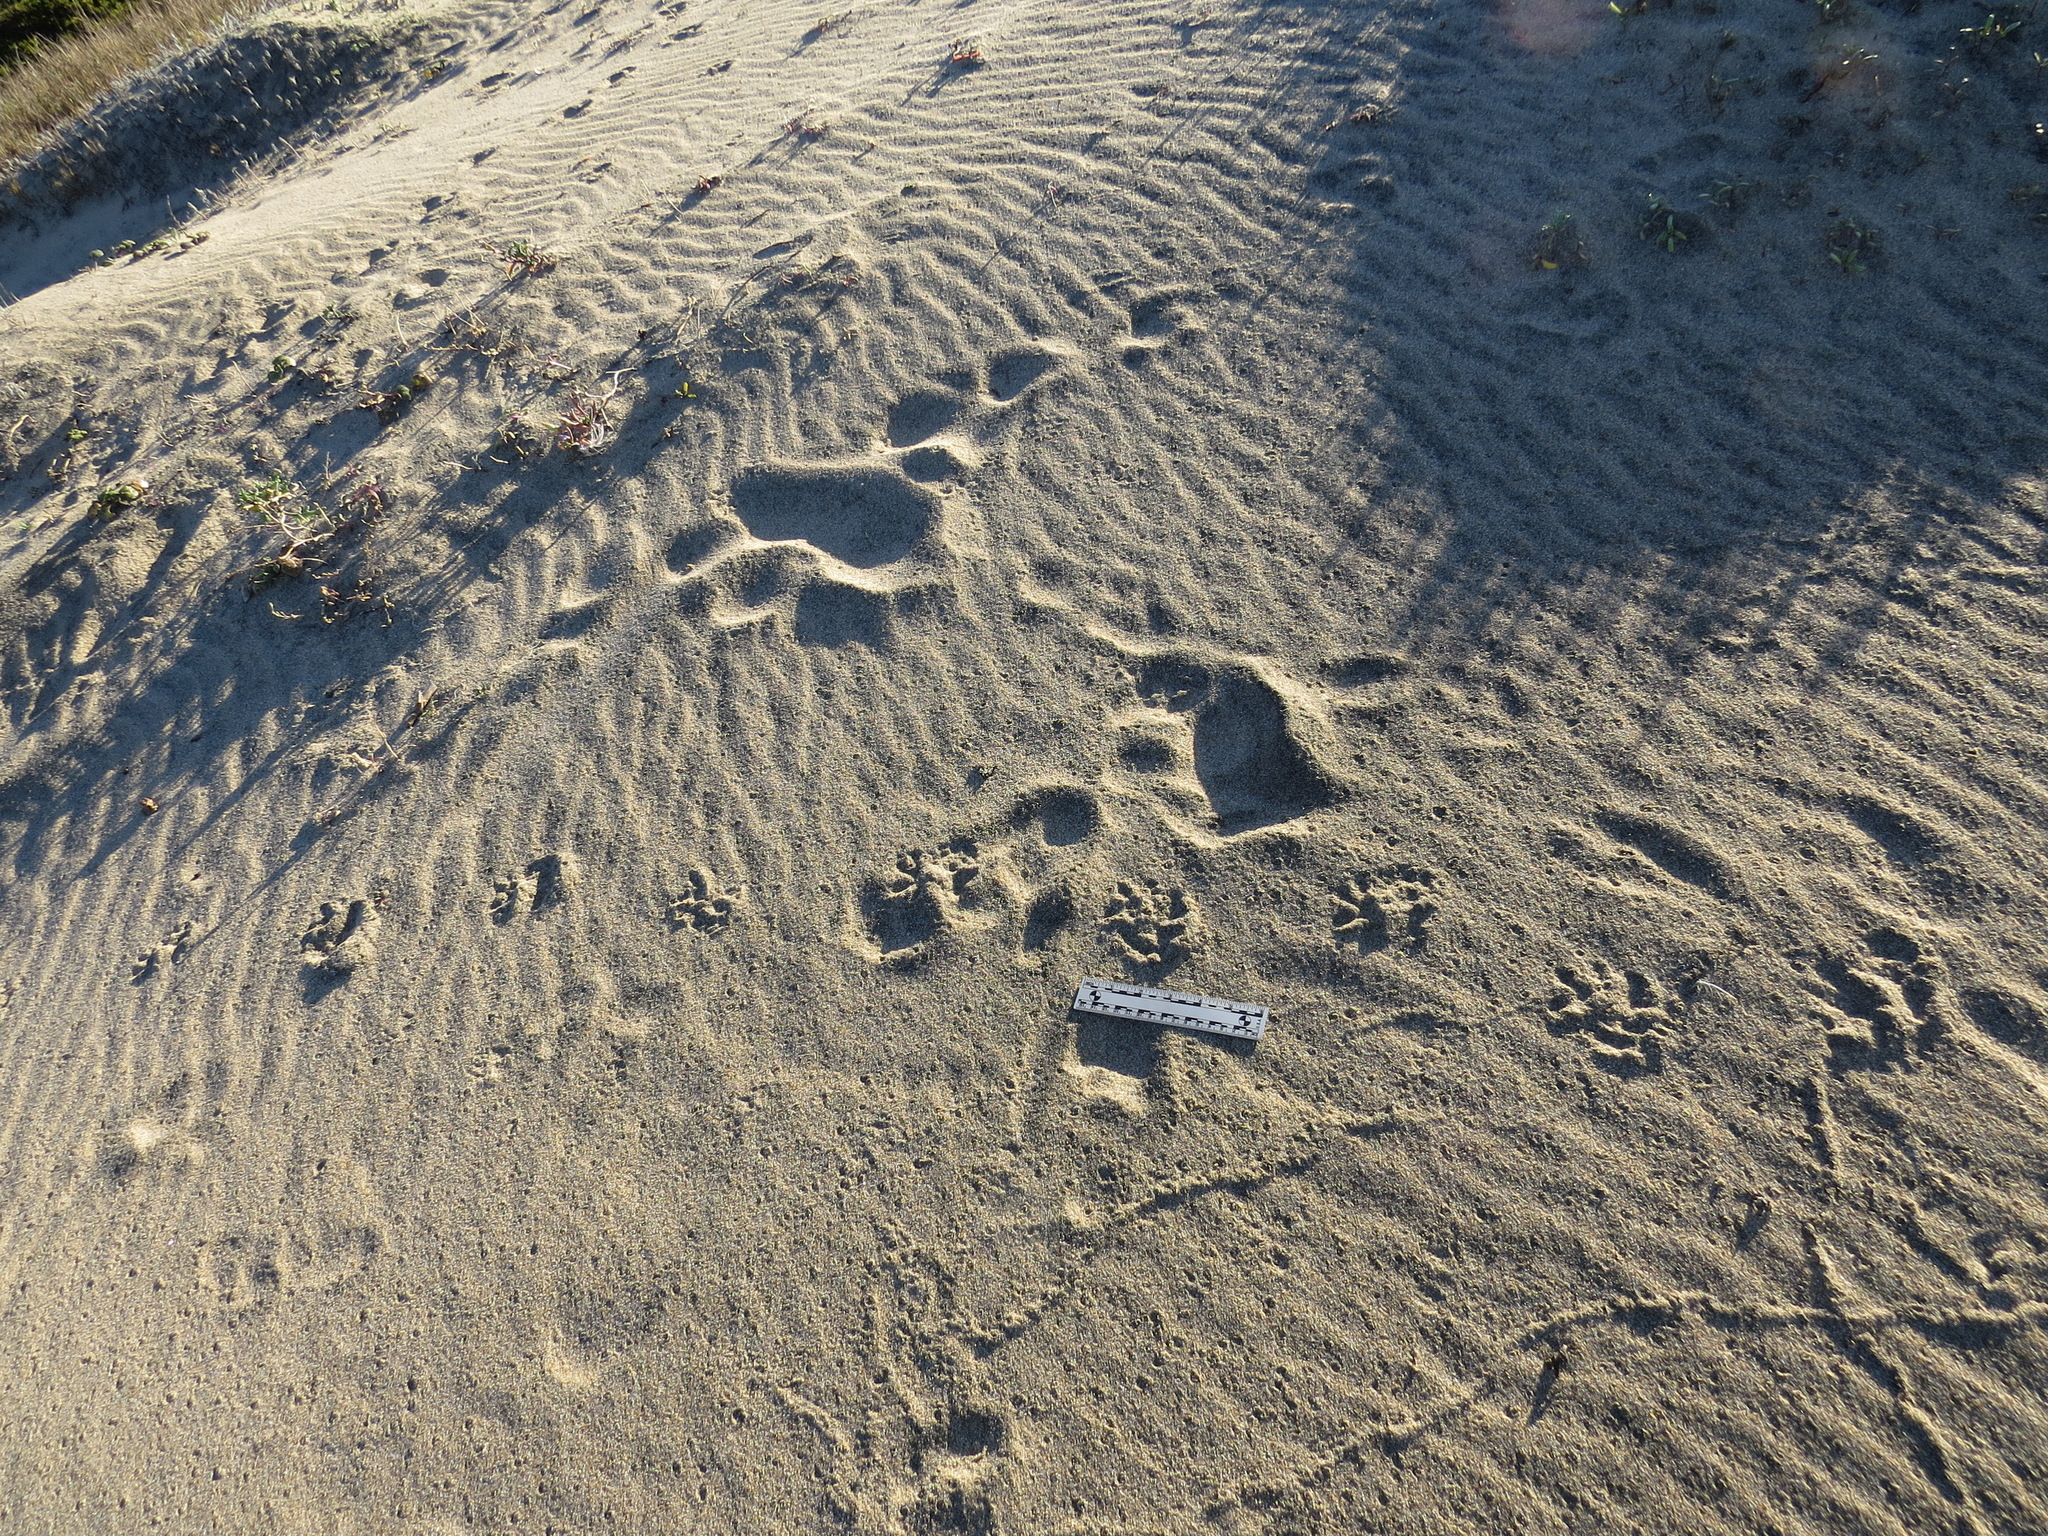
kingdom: Animalia
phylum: Chordata
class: Mammalia
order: Didelphimorphia
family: Didelphidae
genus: Didelphis
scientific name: Didelphis virginiana
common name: Virginia opossum
